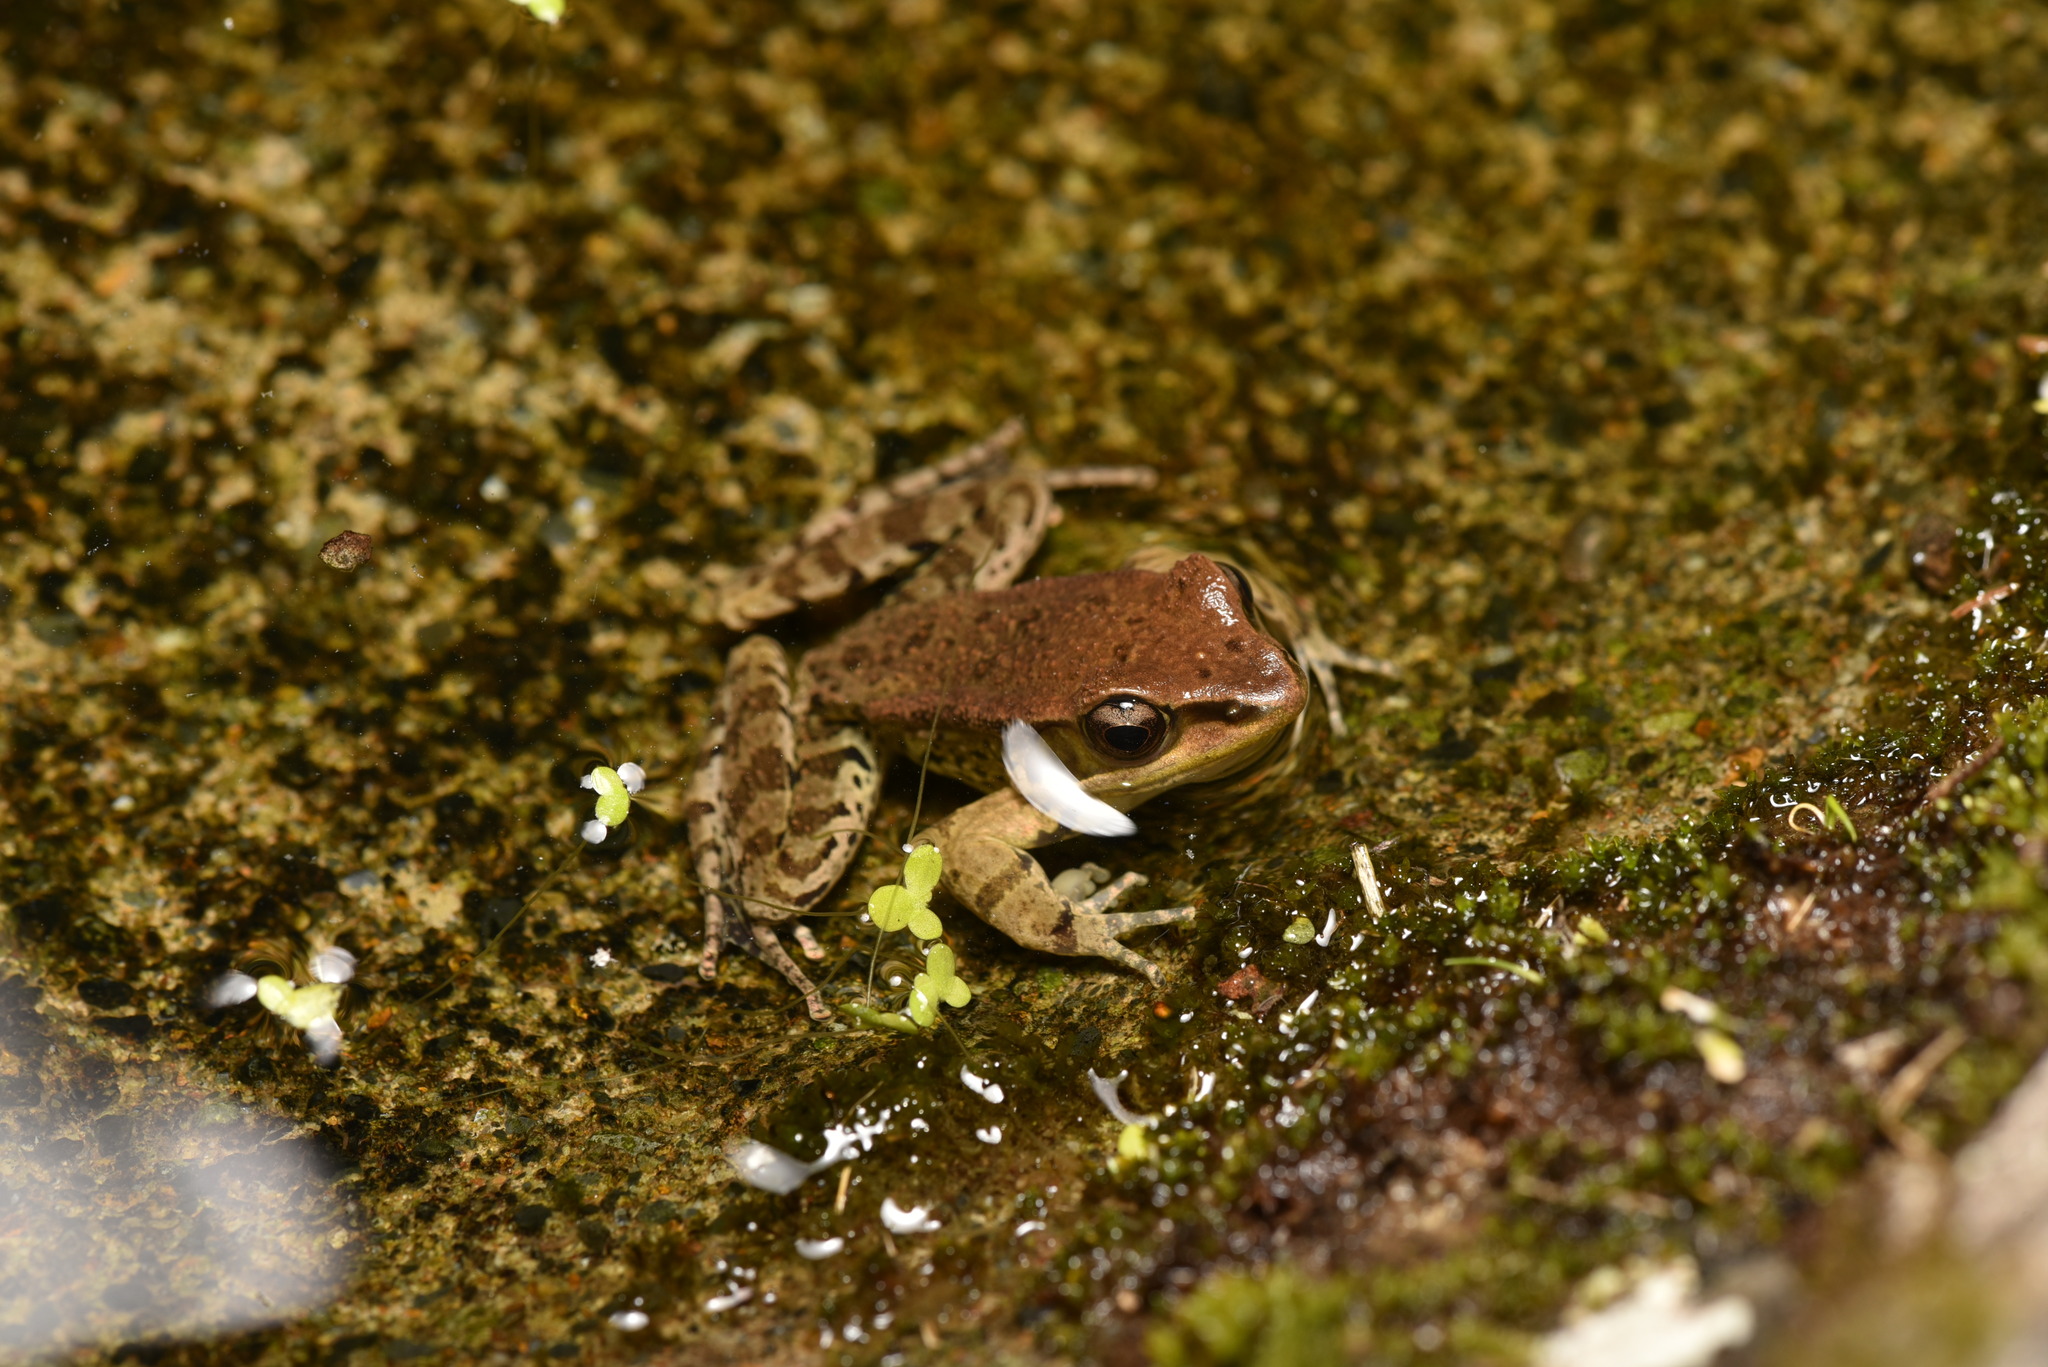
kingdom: Animalia
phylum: Chordata
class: Amphibia
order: Anura
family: Ranidae
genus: Hylarana
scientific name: Hylarana latouchii
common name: Broad-folded frog
